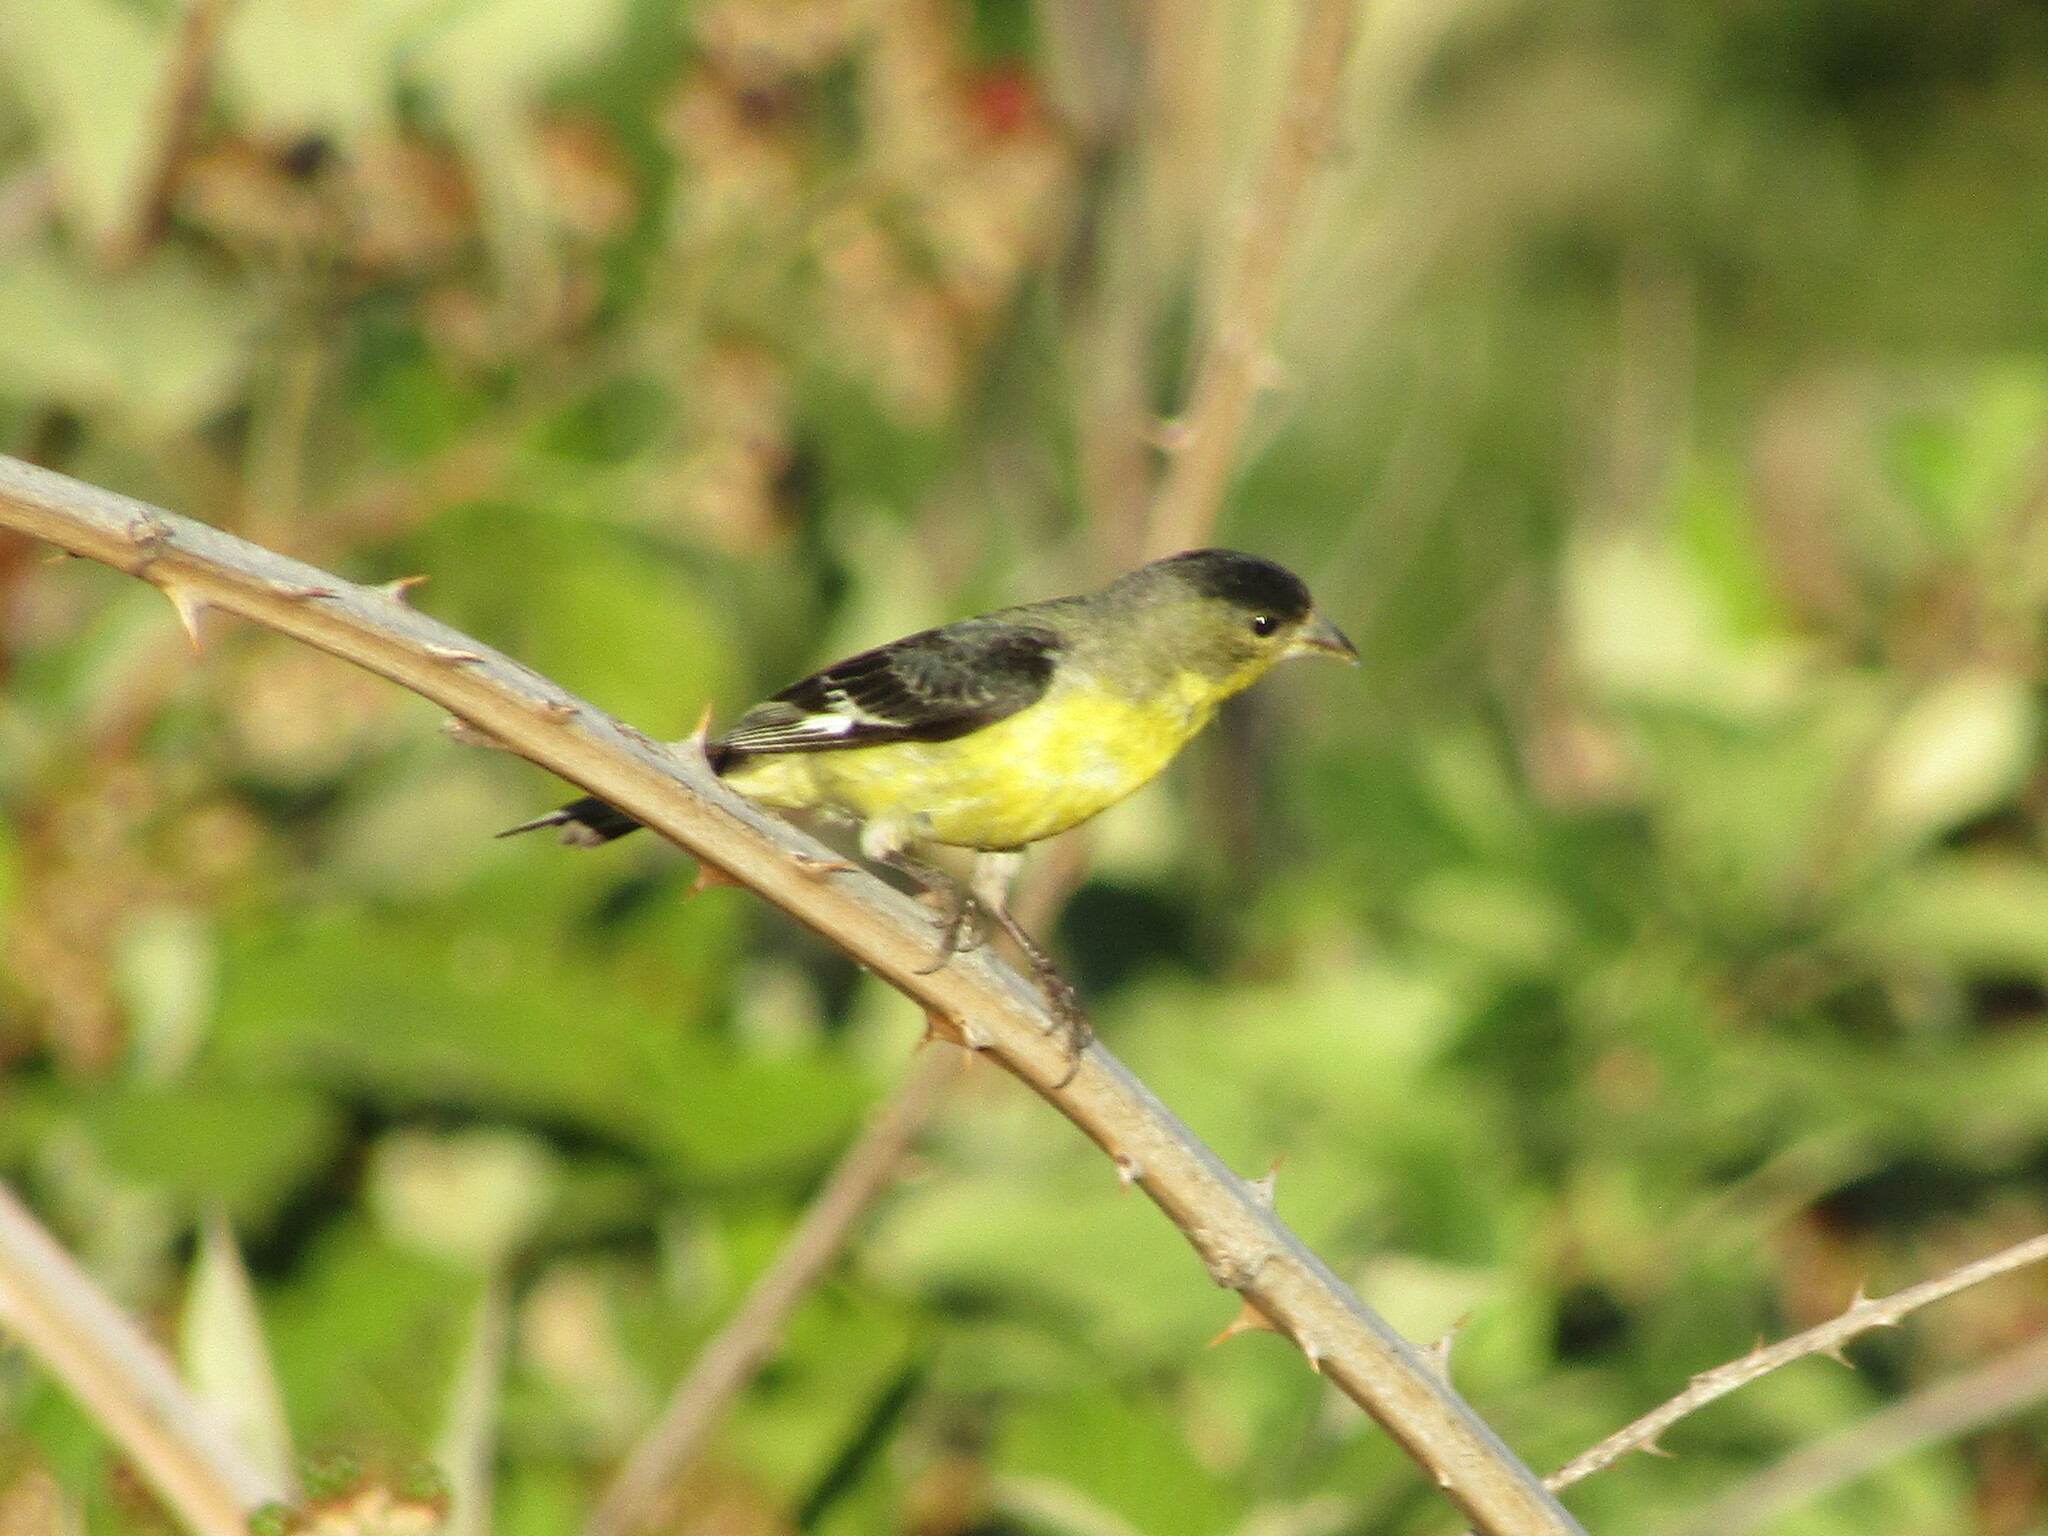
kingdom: Animalia
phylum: Chordata
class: Aves
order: Passeriformes
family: Fringillidae
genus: Spinus
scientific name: Spinus psaltria
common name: Lesser goldfinch
